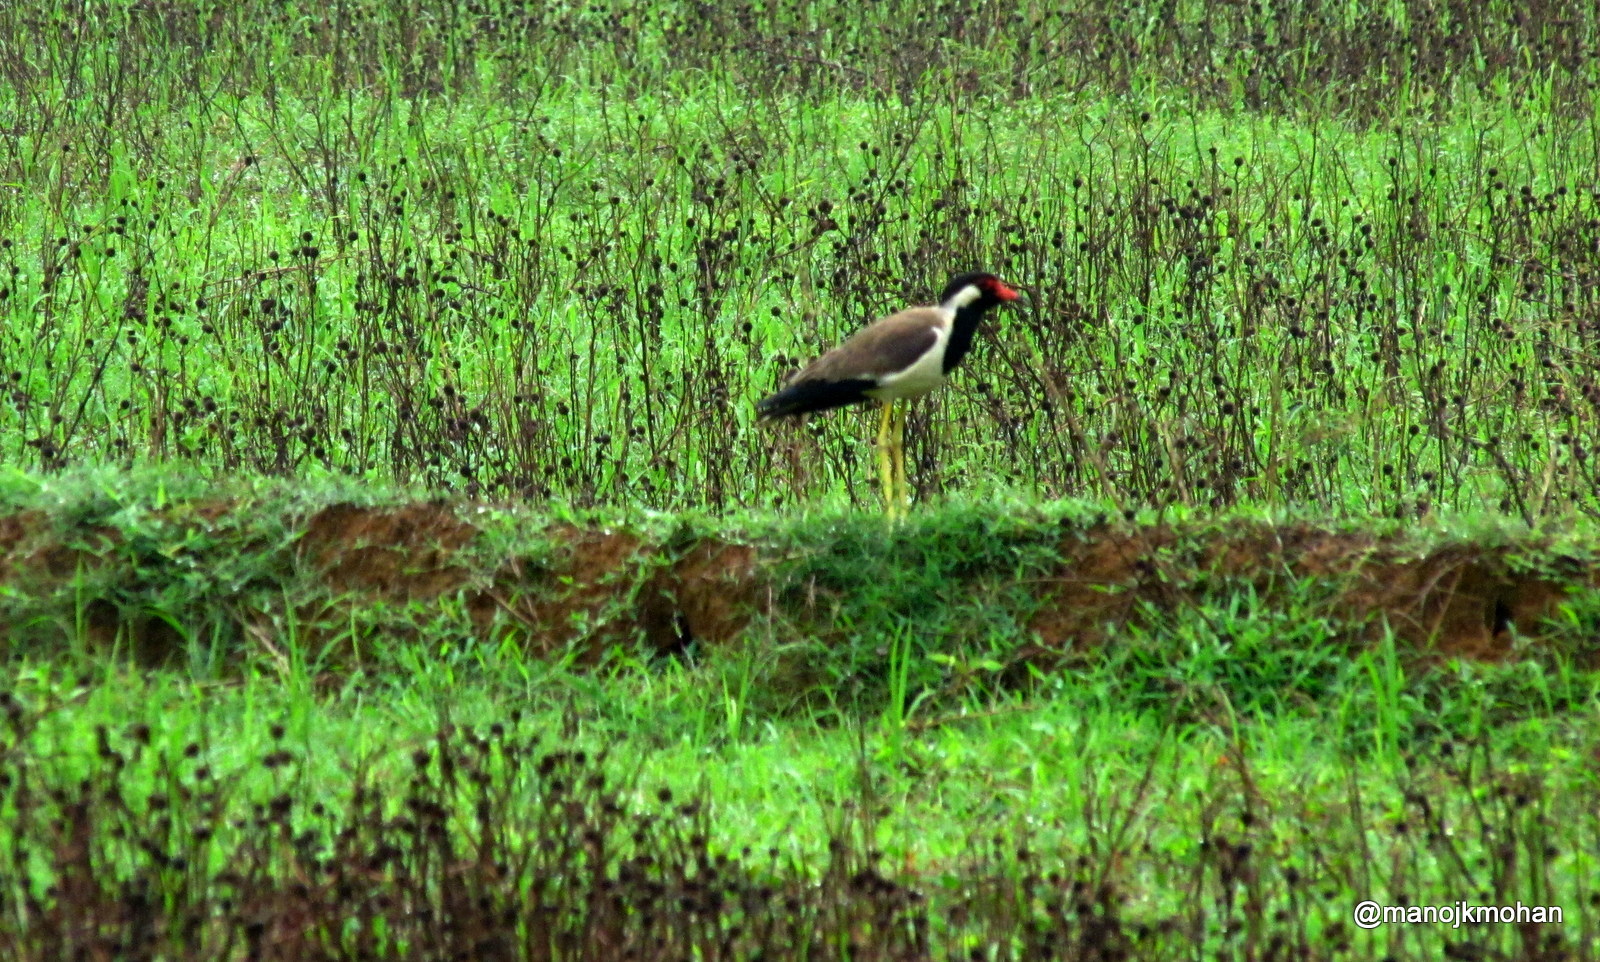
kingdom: Animalia
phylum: Chordata
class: Aves
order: Charadriiformes
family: Charadriidae
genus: Vanellus
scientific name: Vanellus indicus
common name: Red-wattled lapwing
